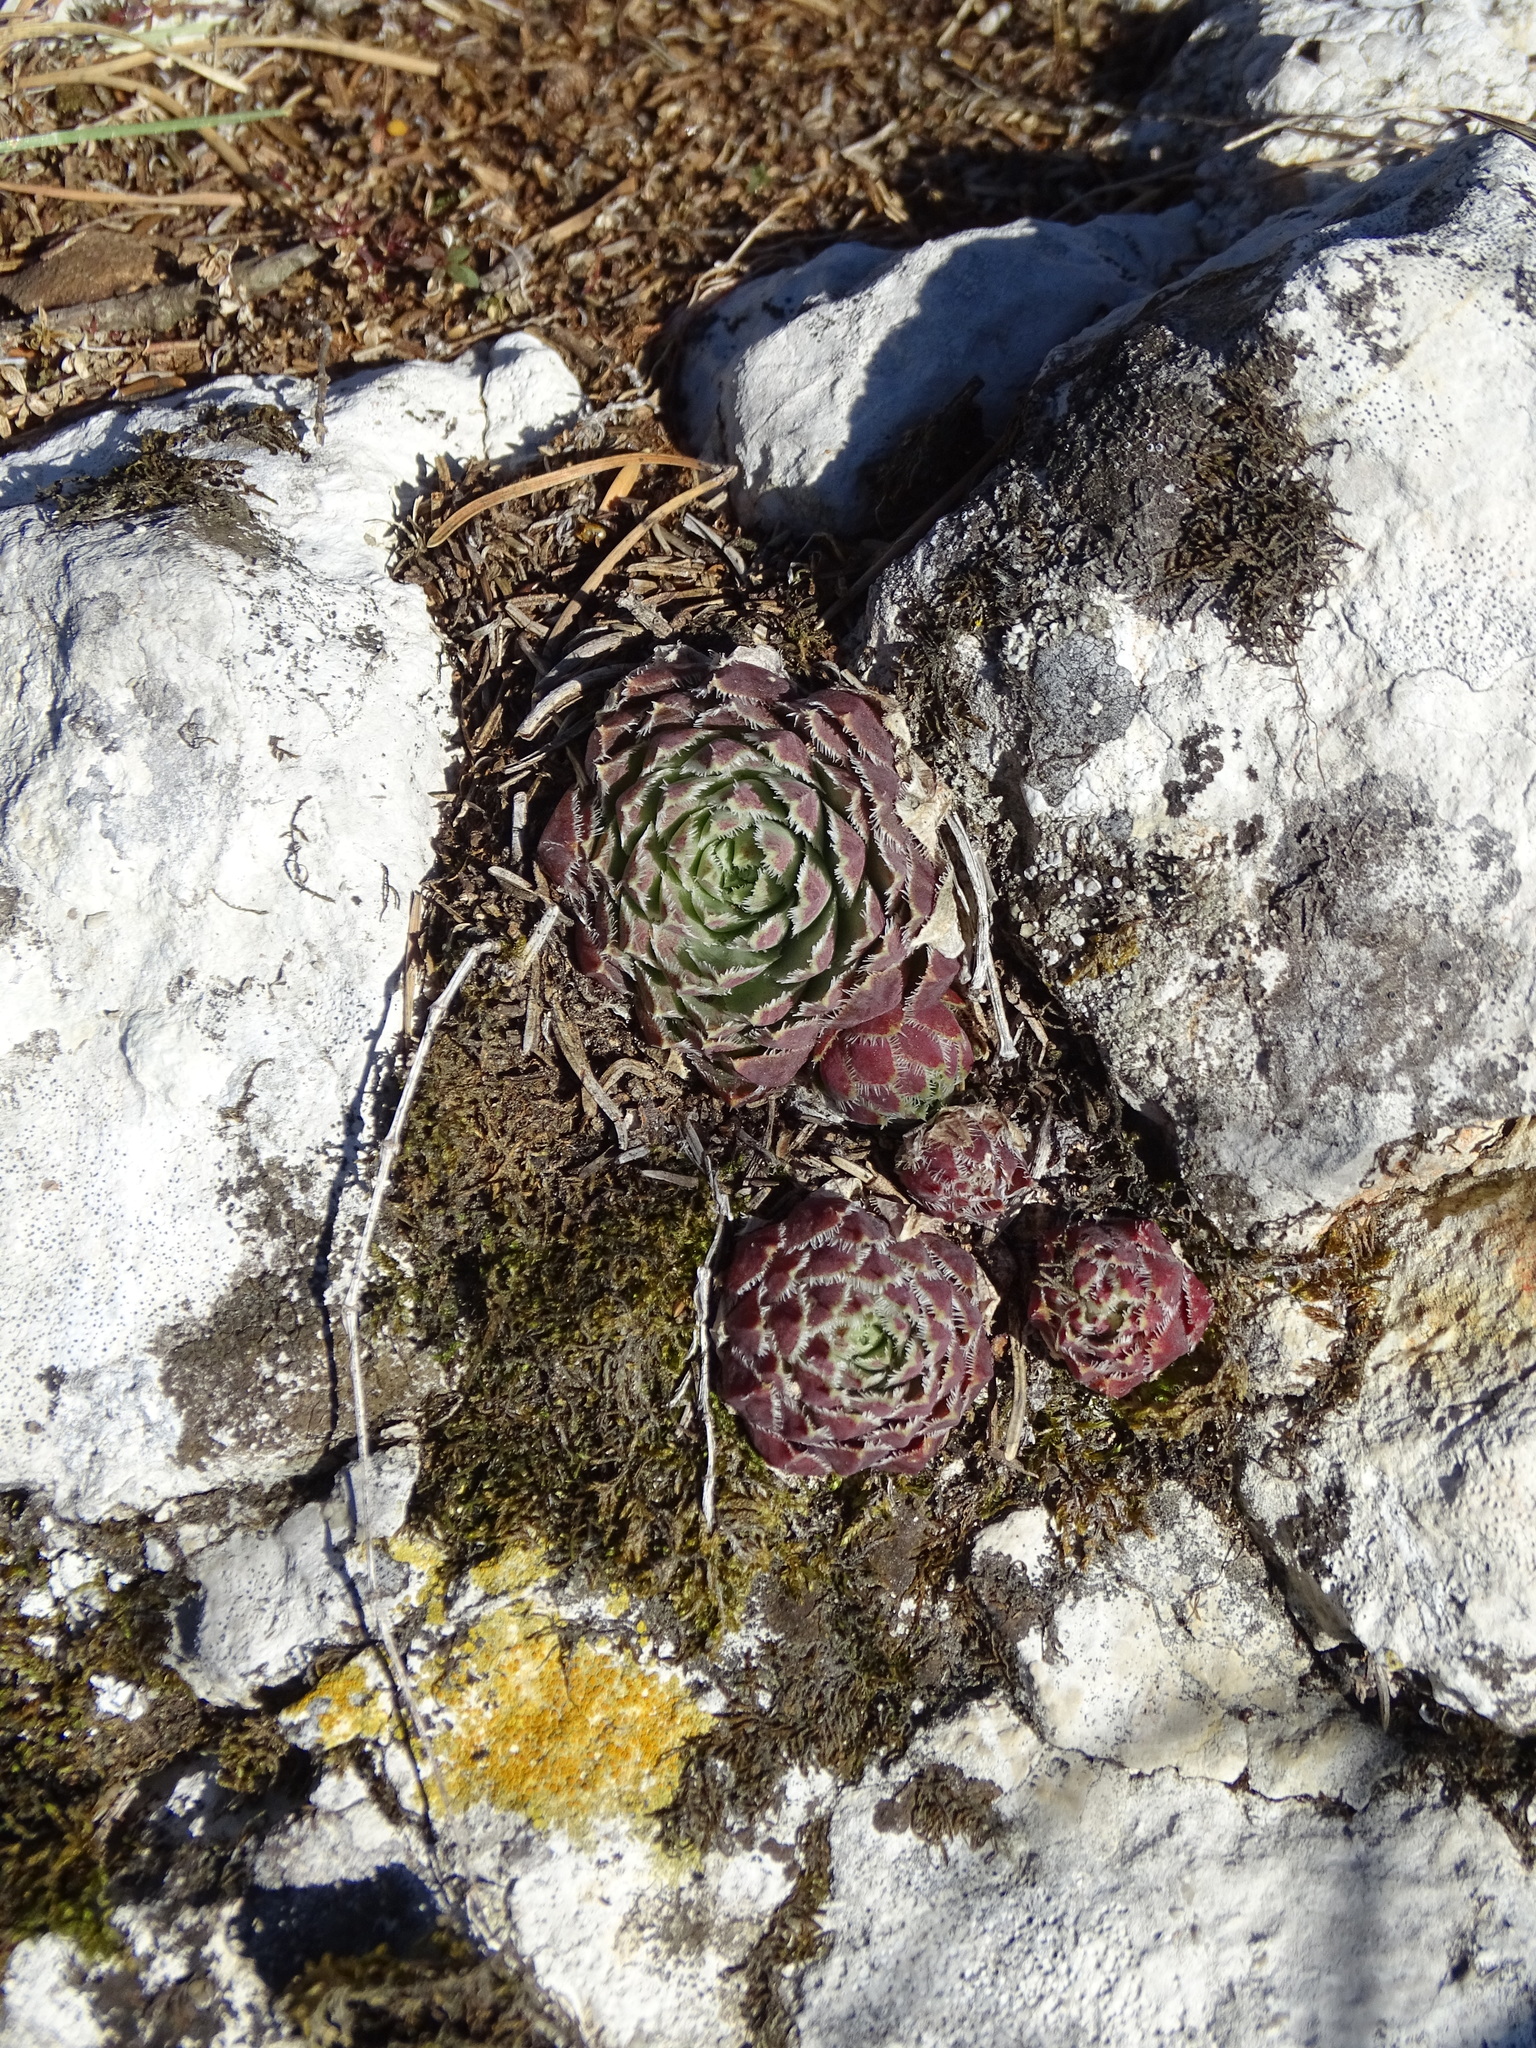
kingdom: Plantae
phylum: Tracheophyta
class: Magnoliopsida
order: Saxifragales
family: Crassulaceae
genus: Sempervivum
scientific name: Sempervivum globiferum
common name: Rolling hen-and-chicks
